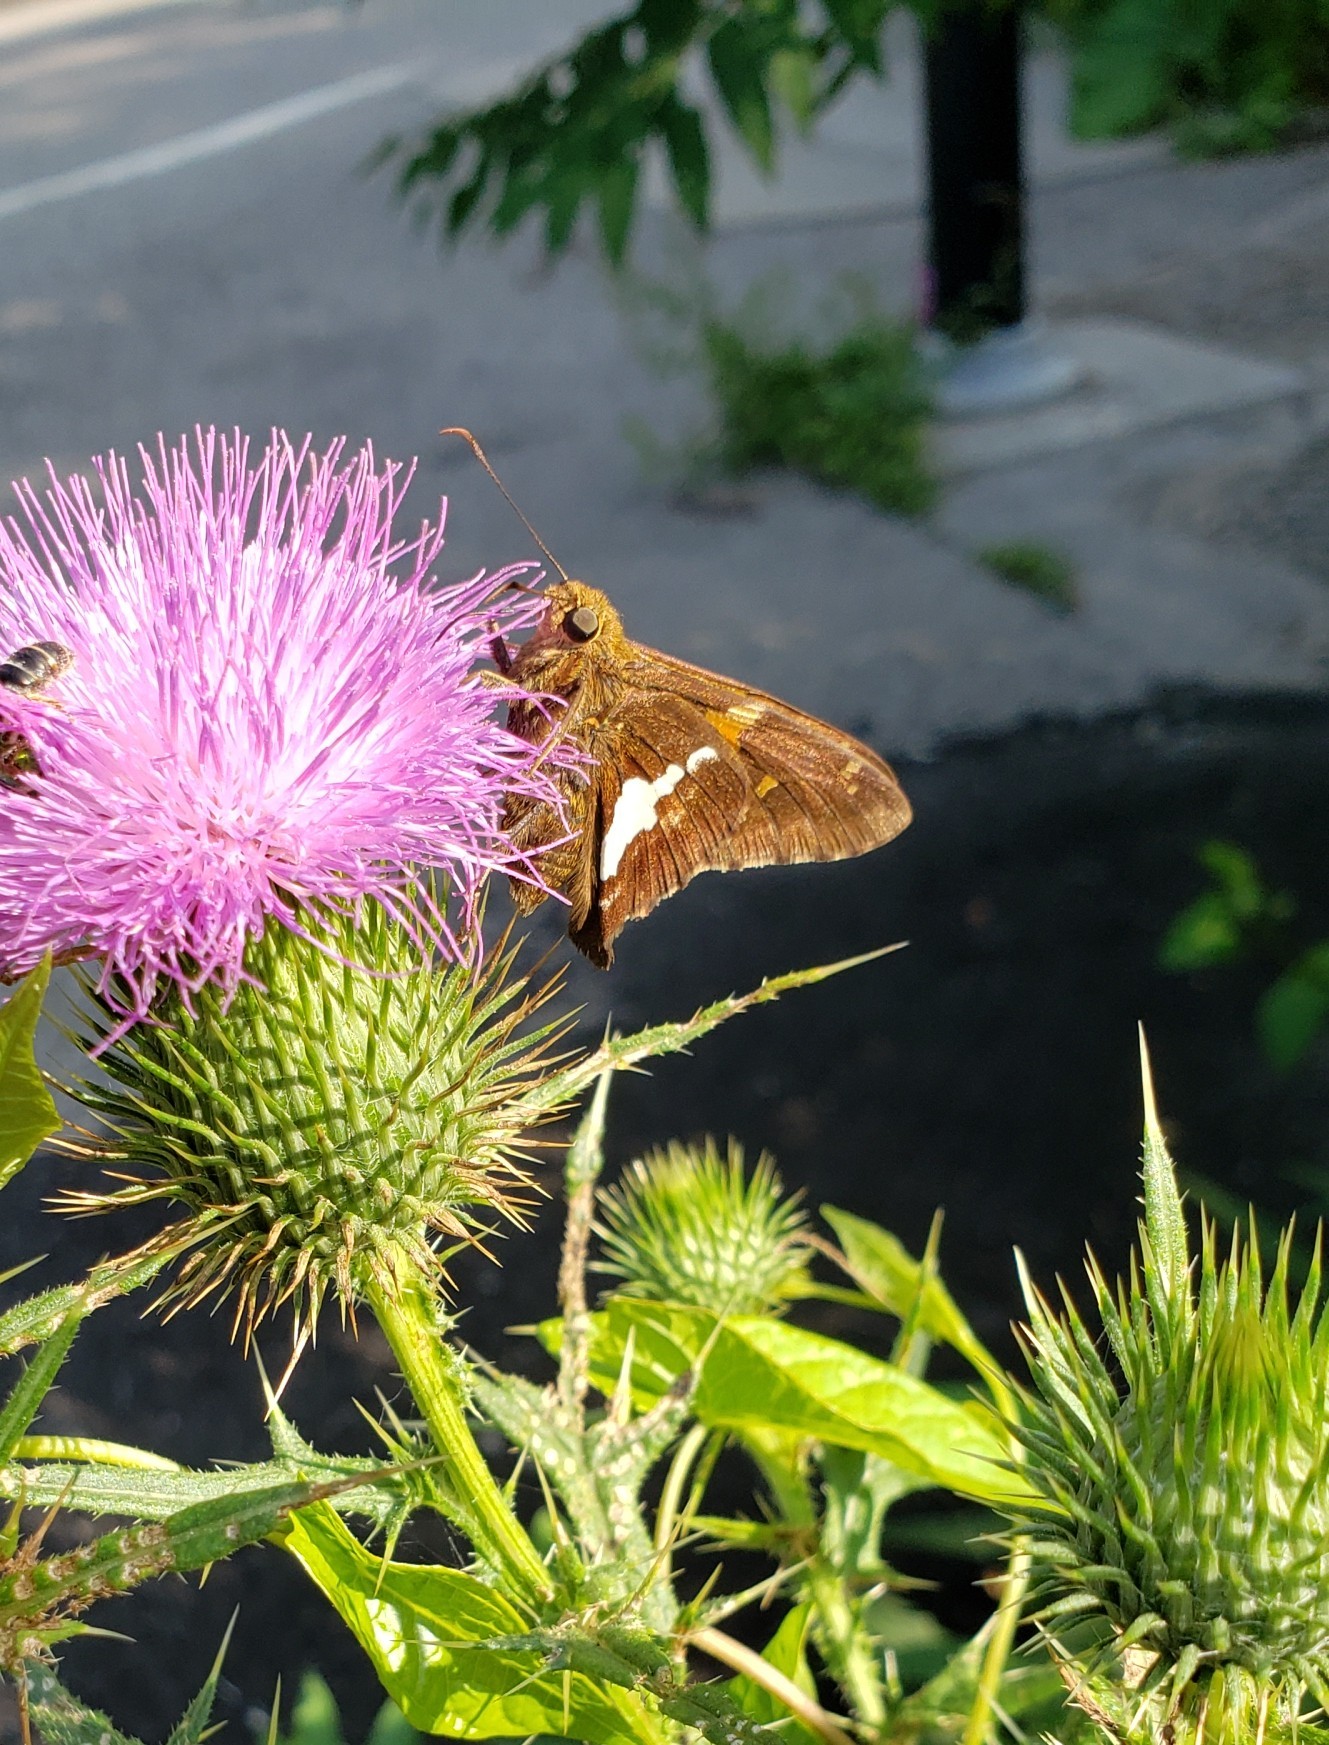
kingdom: Animalia
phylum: Arthropoda
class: Insecta
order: Lepidoptera
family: Hesperiidae
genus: Epargyreus
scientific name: Epargyreus clarus
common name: Silver-spotted skipper
